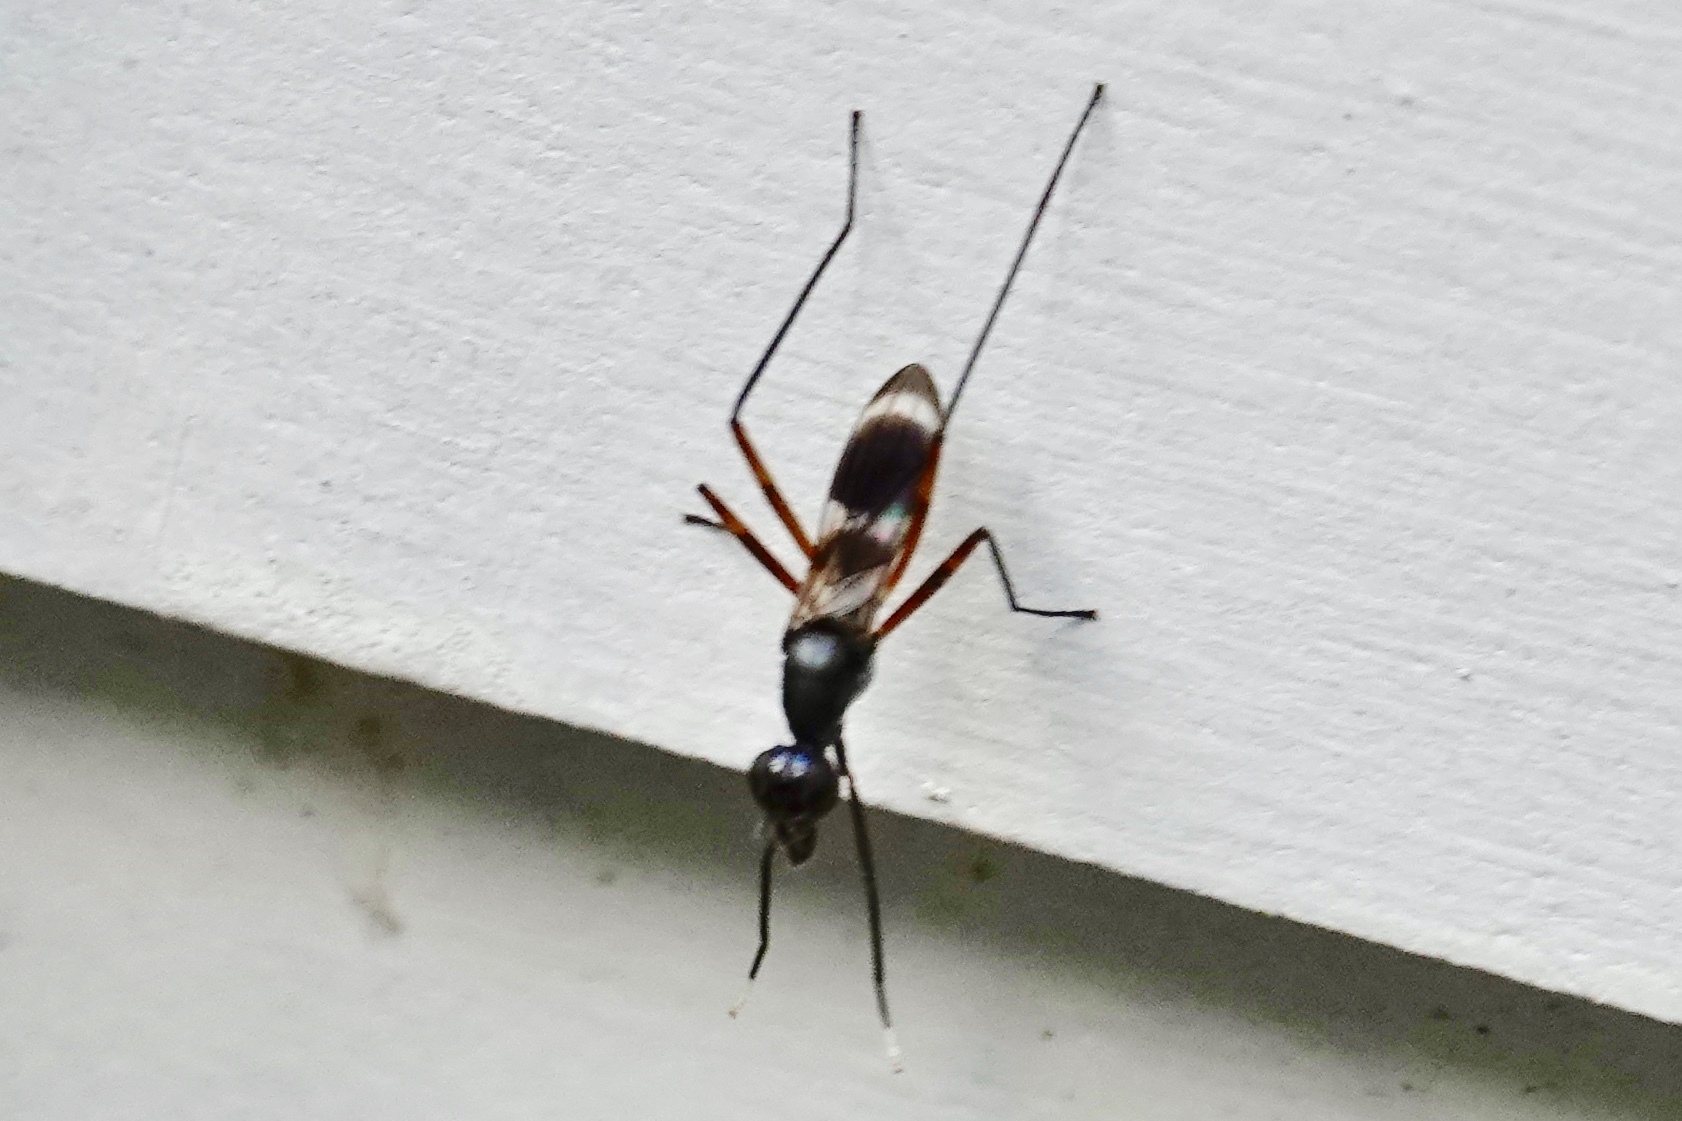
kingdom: Animalia
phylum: Arthropoda
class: Insecta
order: Diptera
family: Micropezidae
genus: Taeniaptera
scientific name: Taeniaptera trivittata
